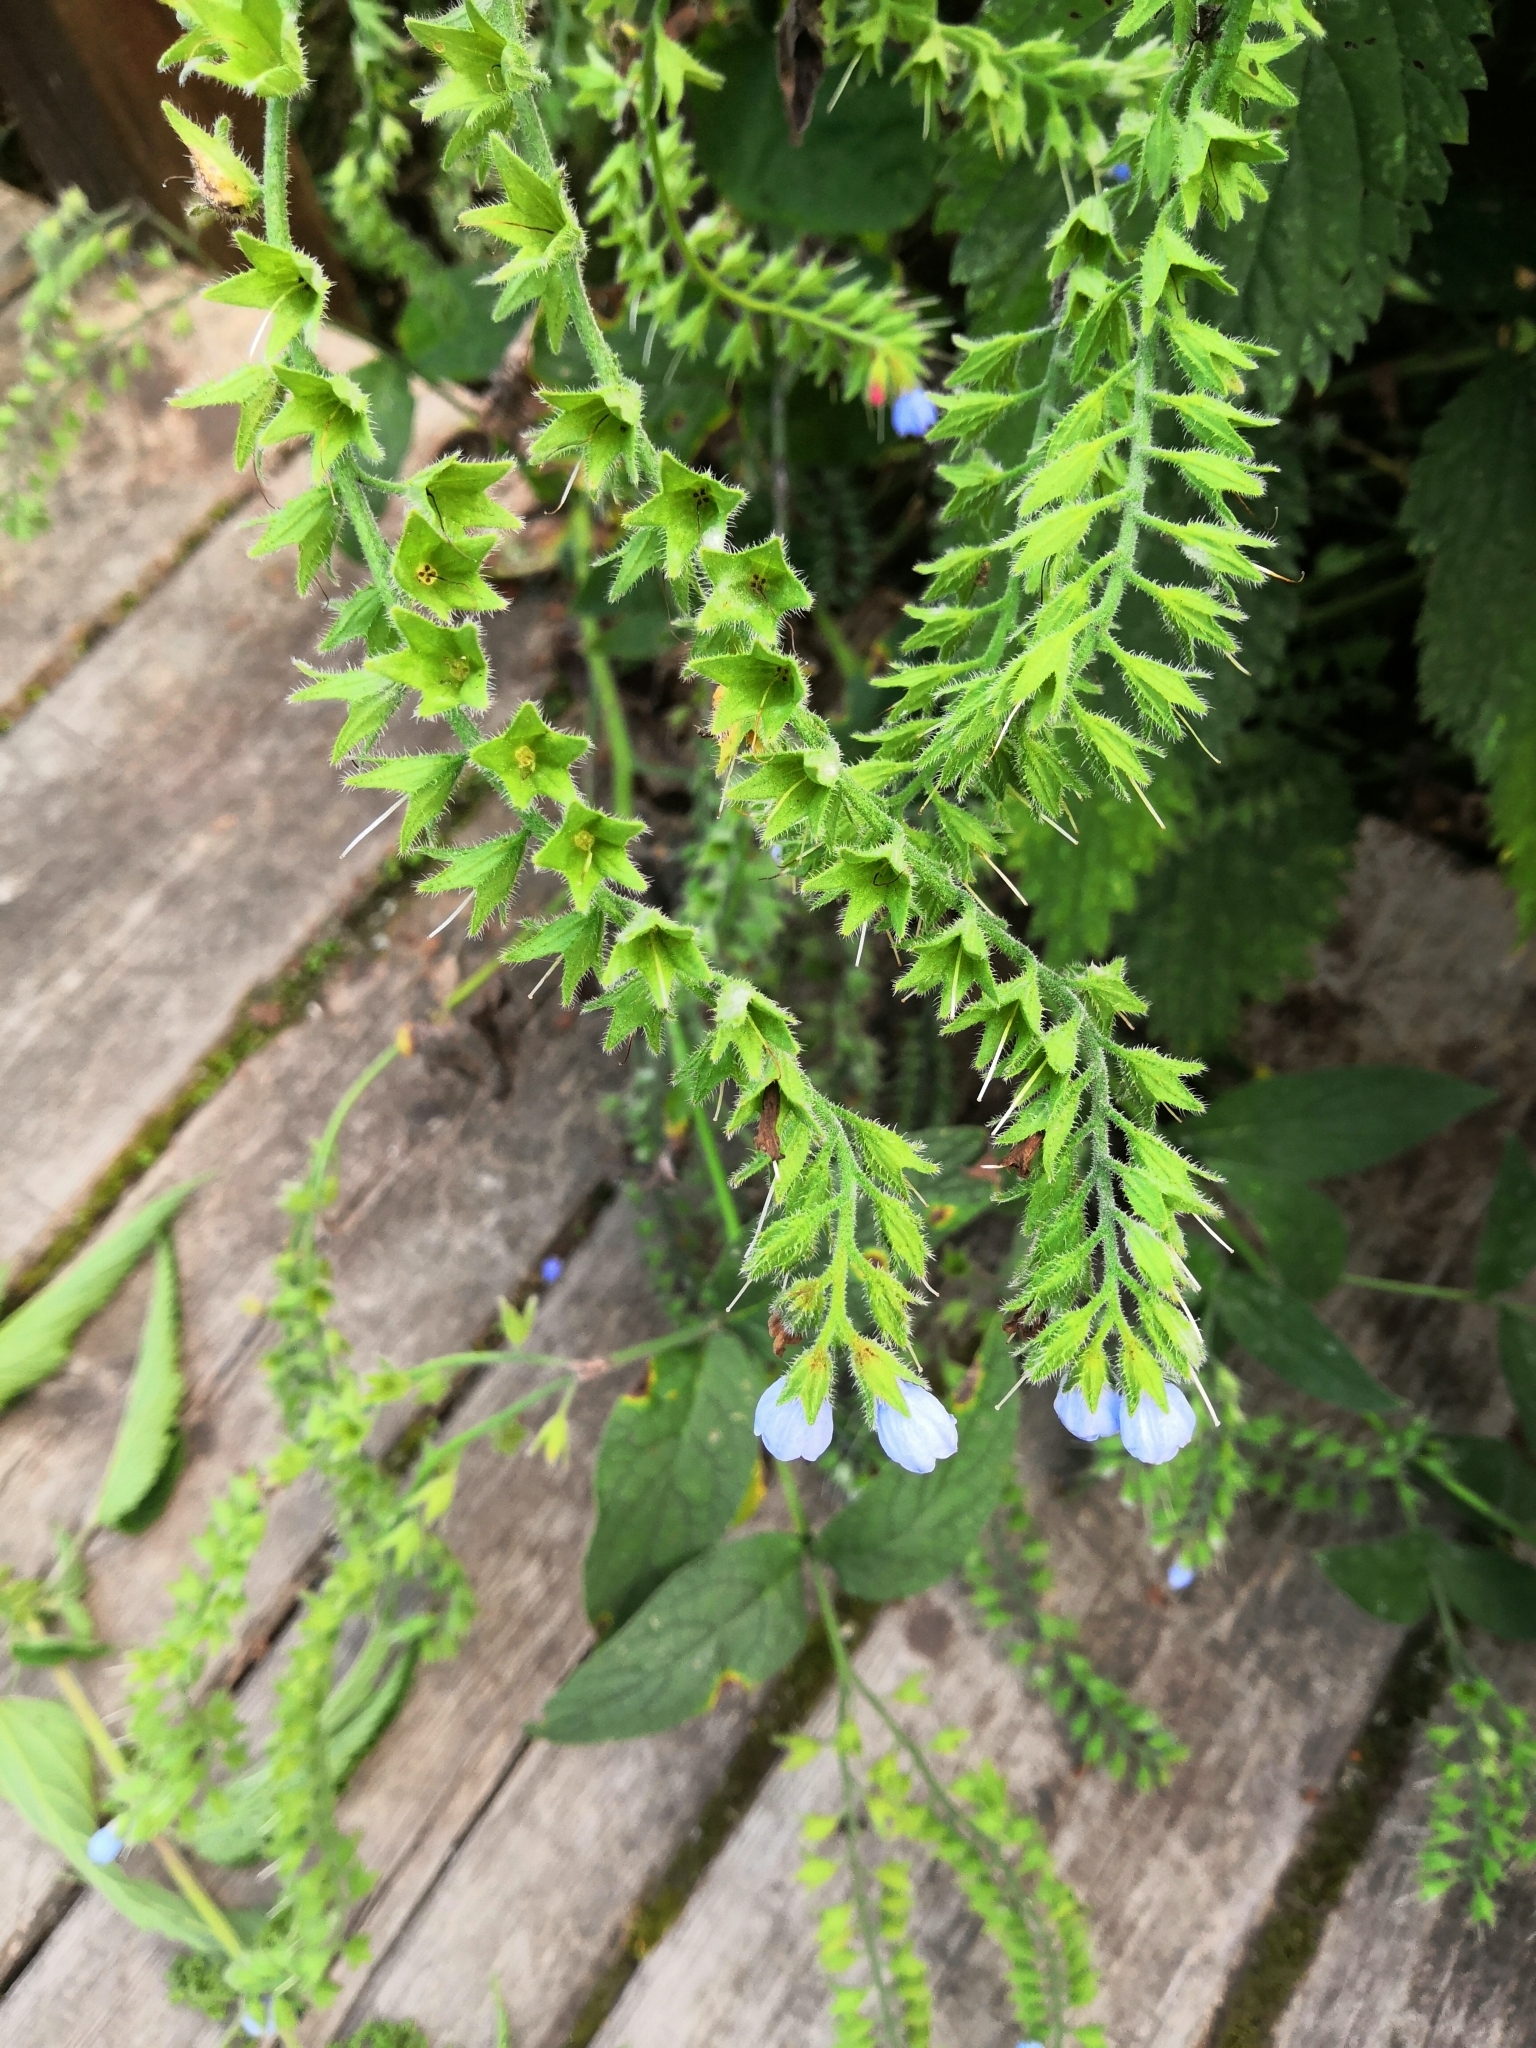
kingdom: Plantae
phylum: Tracheophyta
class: Magnoliopsida
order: Boraginales
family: Boraginaceae
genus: Symphytum
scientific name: Symphytum caucasicum
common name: Caucasian comfrey
